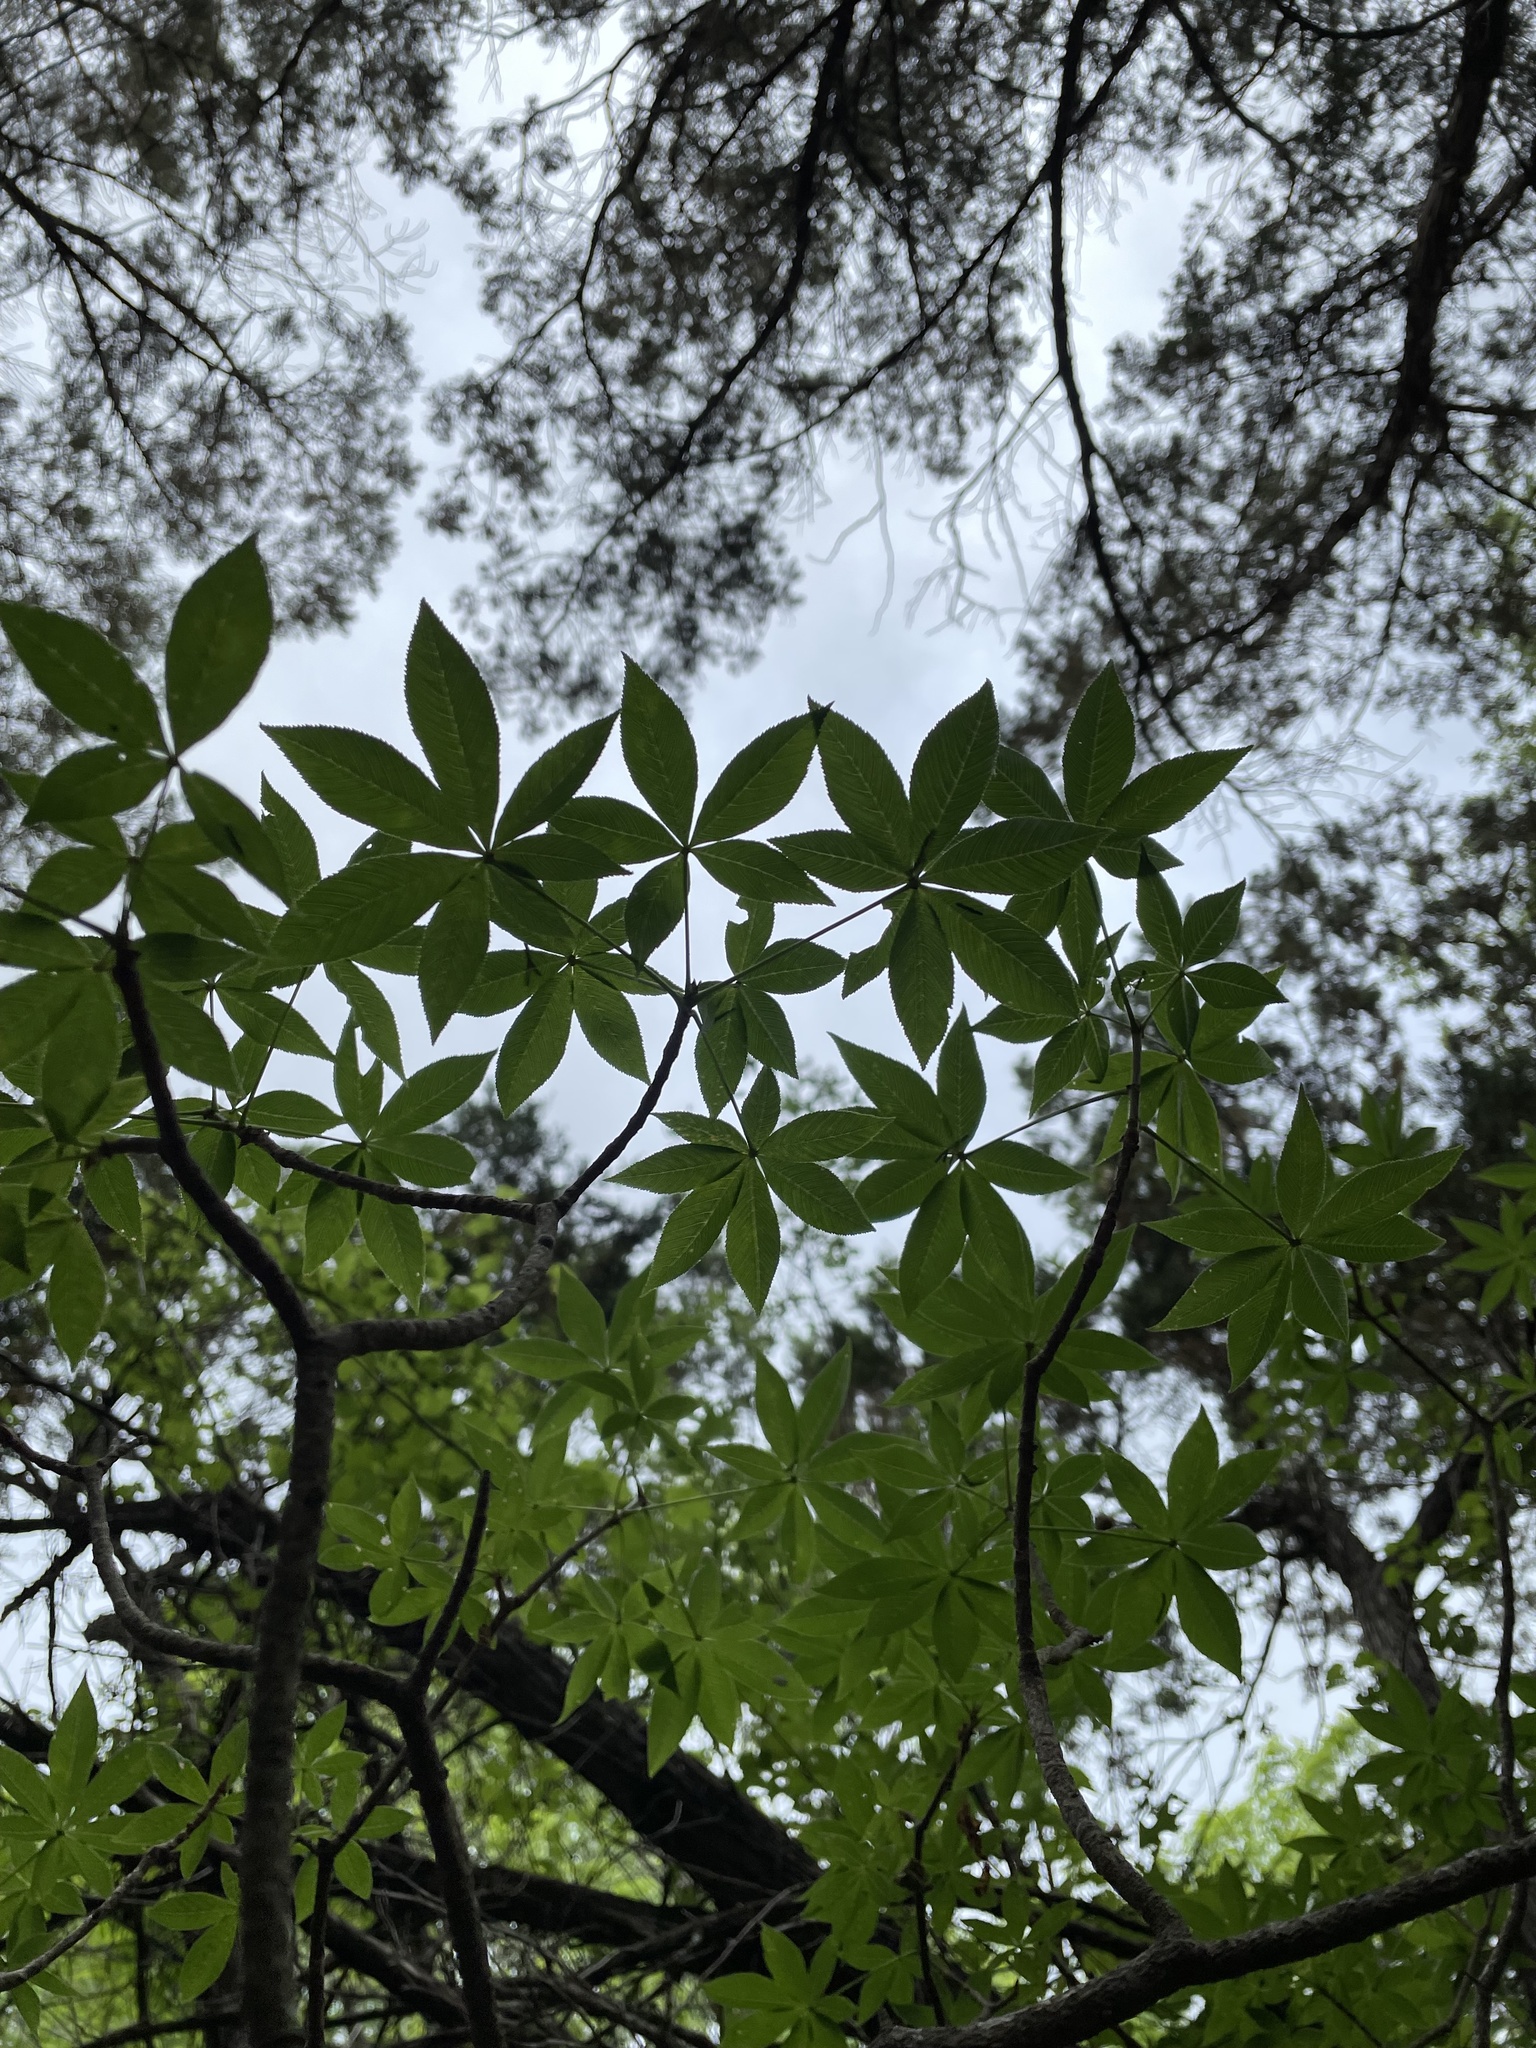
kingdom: Plantae
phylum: Tracheophyta
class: Magnoliopsida
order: Sapindales
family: Sapindaceae
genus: Aesculus
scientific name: Aesculus glabra
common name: Ohio buckeye
